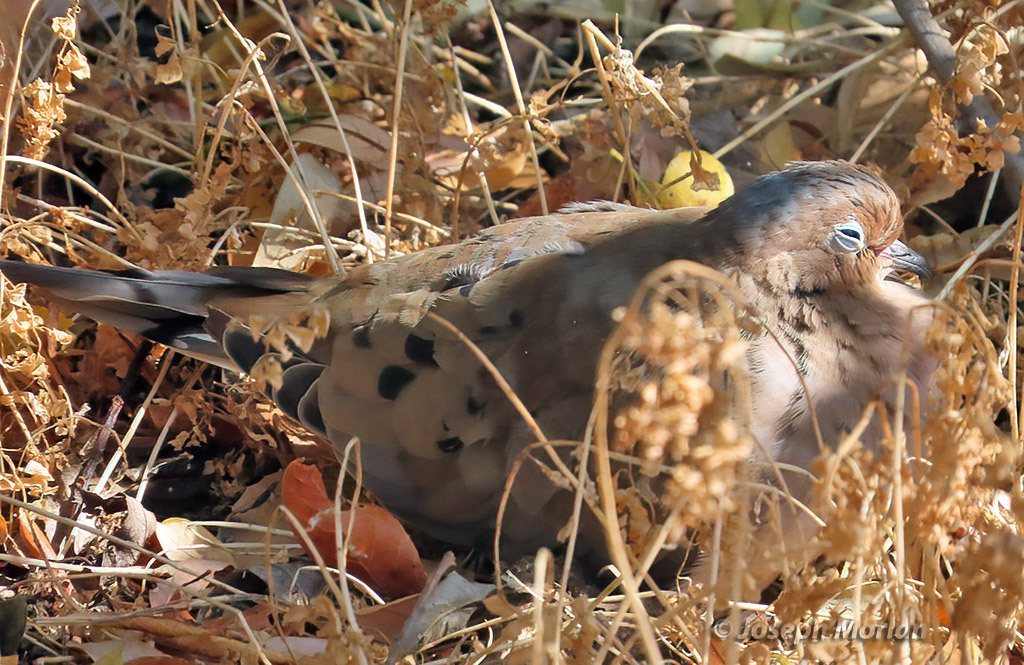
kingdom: Animalia
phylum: Chordata
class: Aves
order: Columbiformes
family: Columbidae
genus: Zenaida
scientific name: Zenaida macroura
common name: Mourning dove
